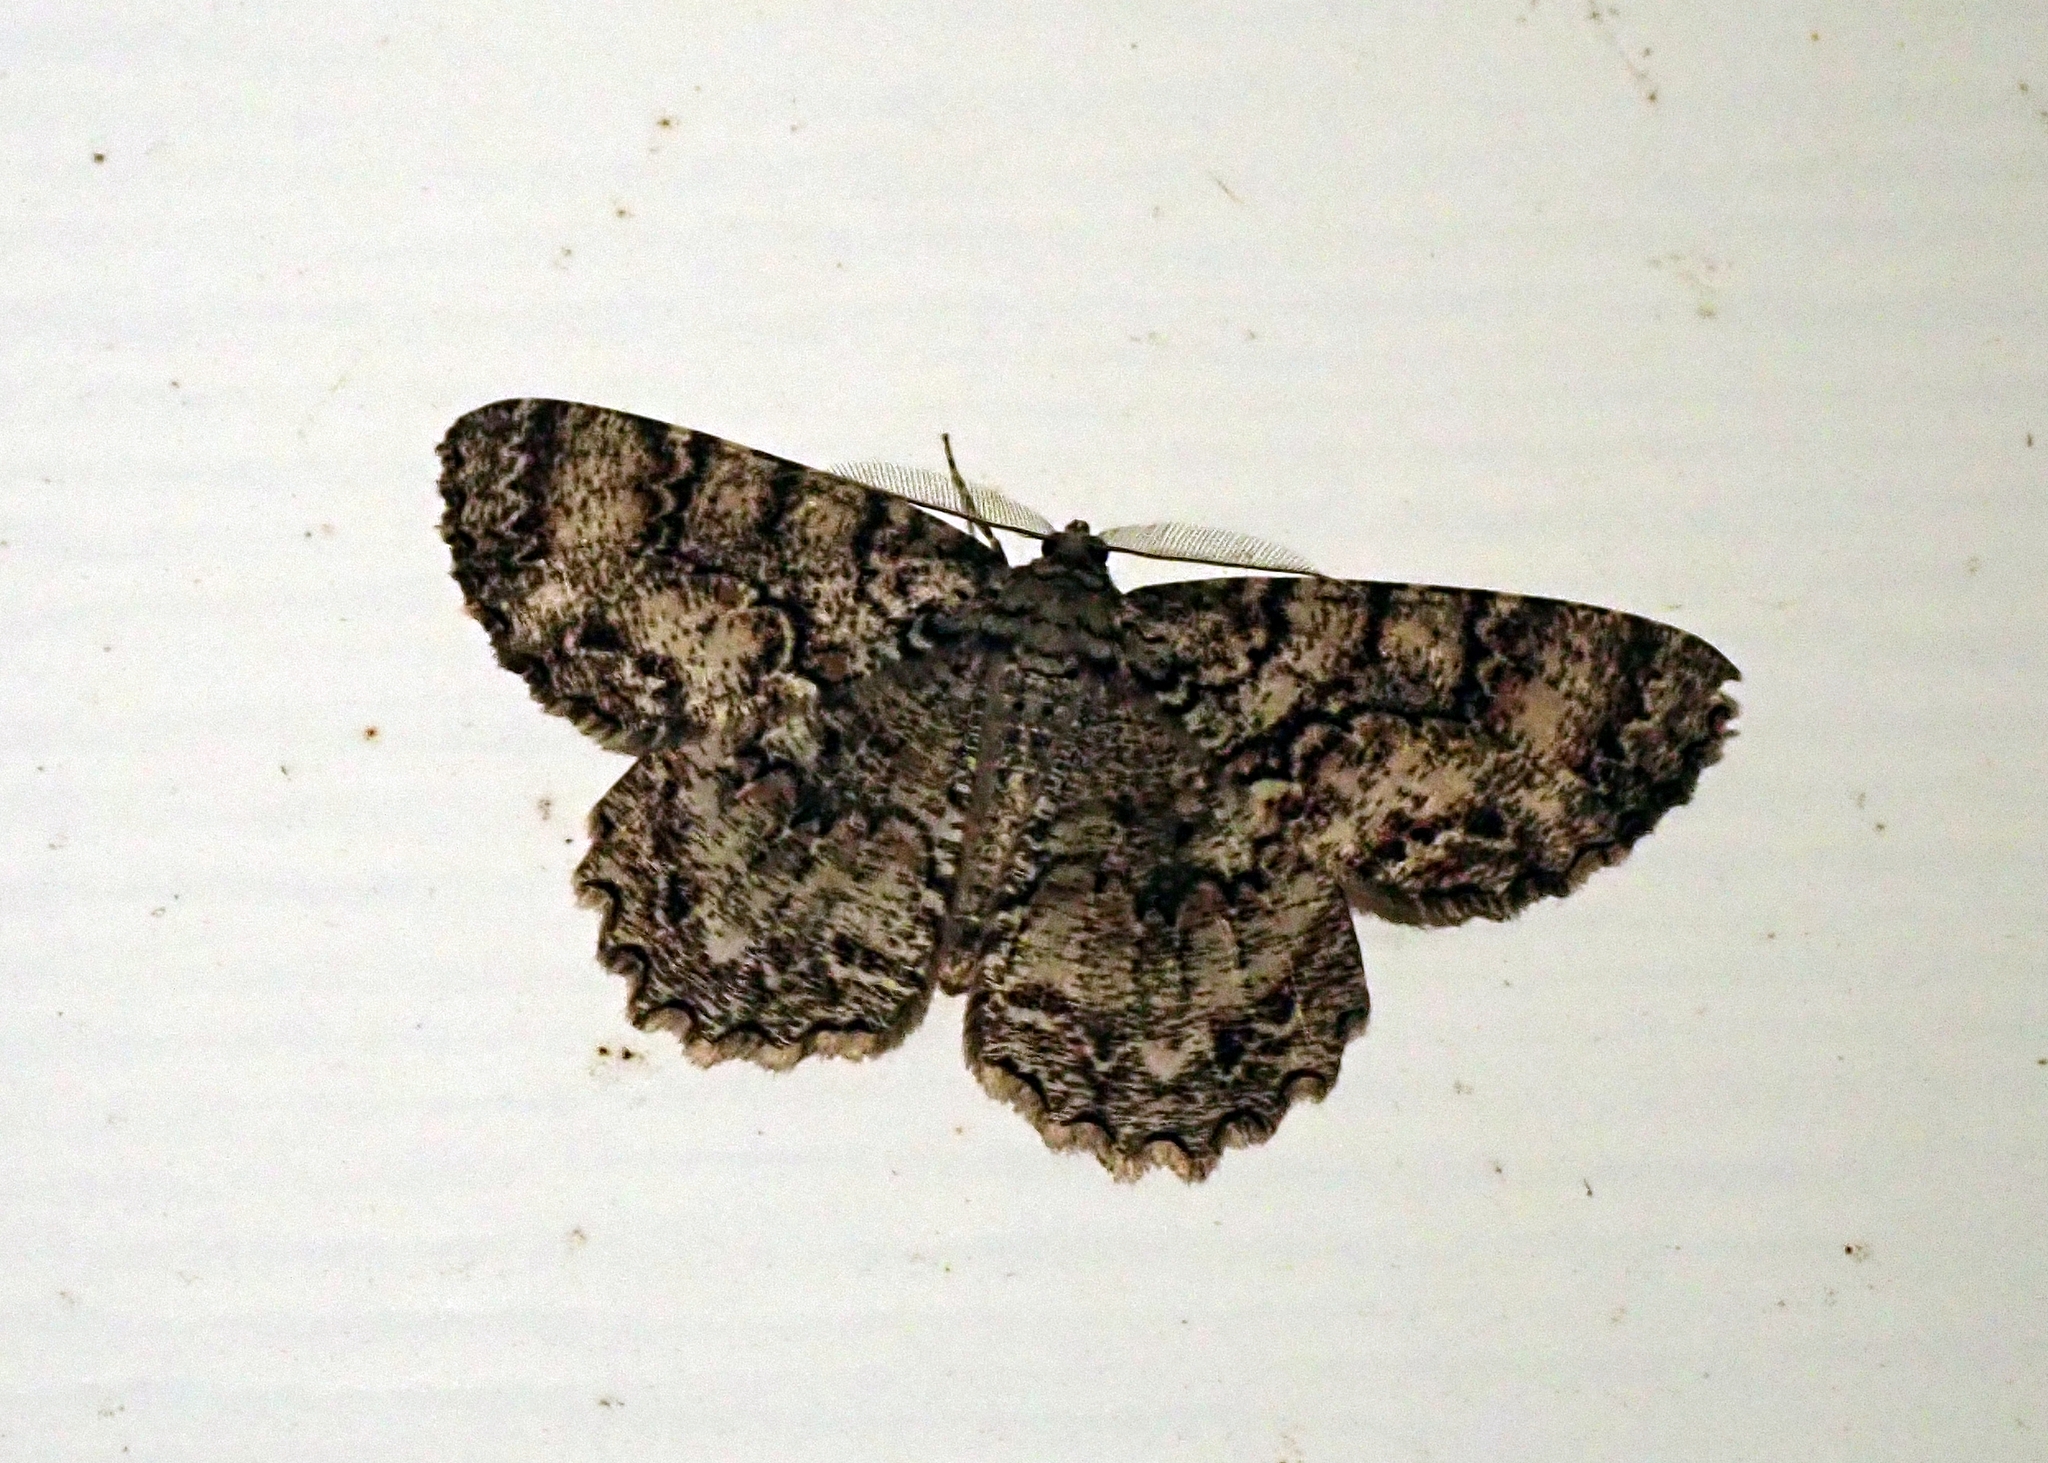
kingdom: Animalia
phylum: Arthropoda
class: Insecta
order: Lepidoptera
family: Geometridae
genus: Epimecis
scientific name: Epimecis hortaria
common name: Tulip-tree beauty
